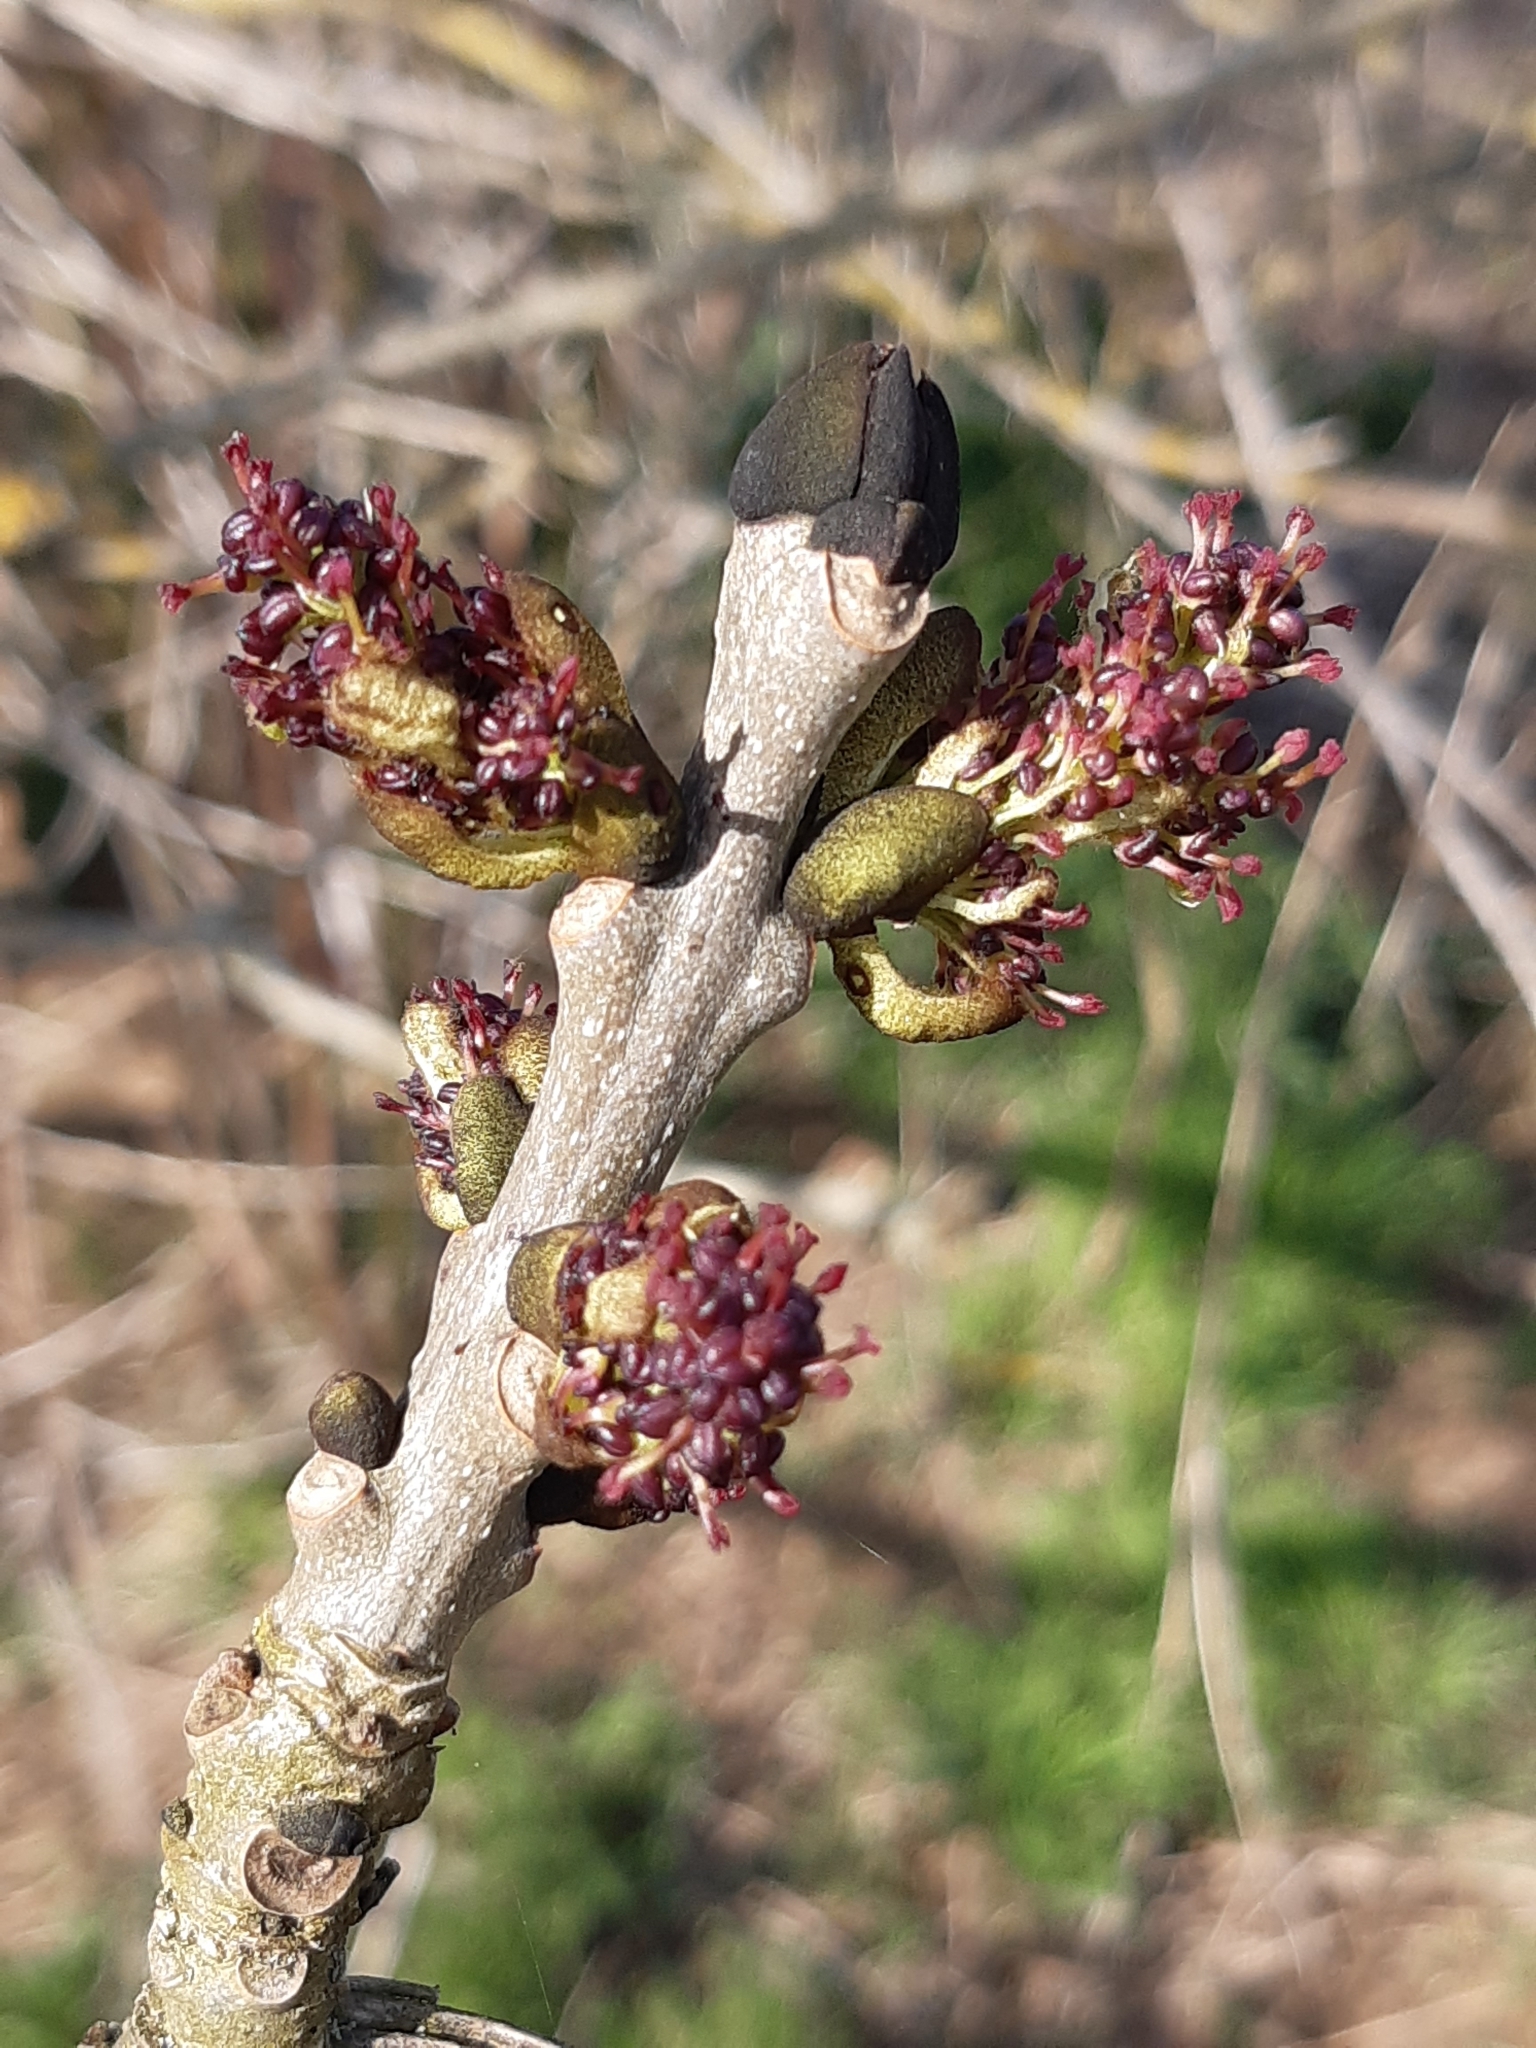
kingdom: Plantae
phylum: Tracheophyta
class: Magnoliopsida
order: Lamiales
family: Oleaceae
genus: Fraxinus
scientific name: Fraxinus excelsior
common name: European ash
